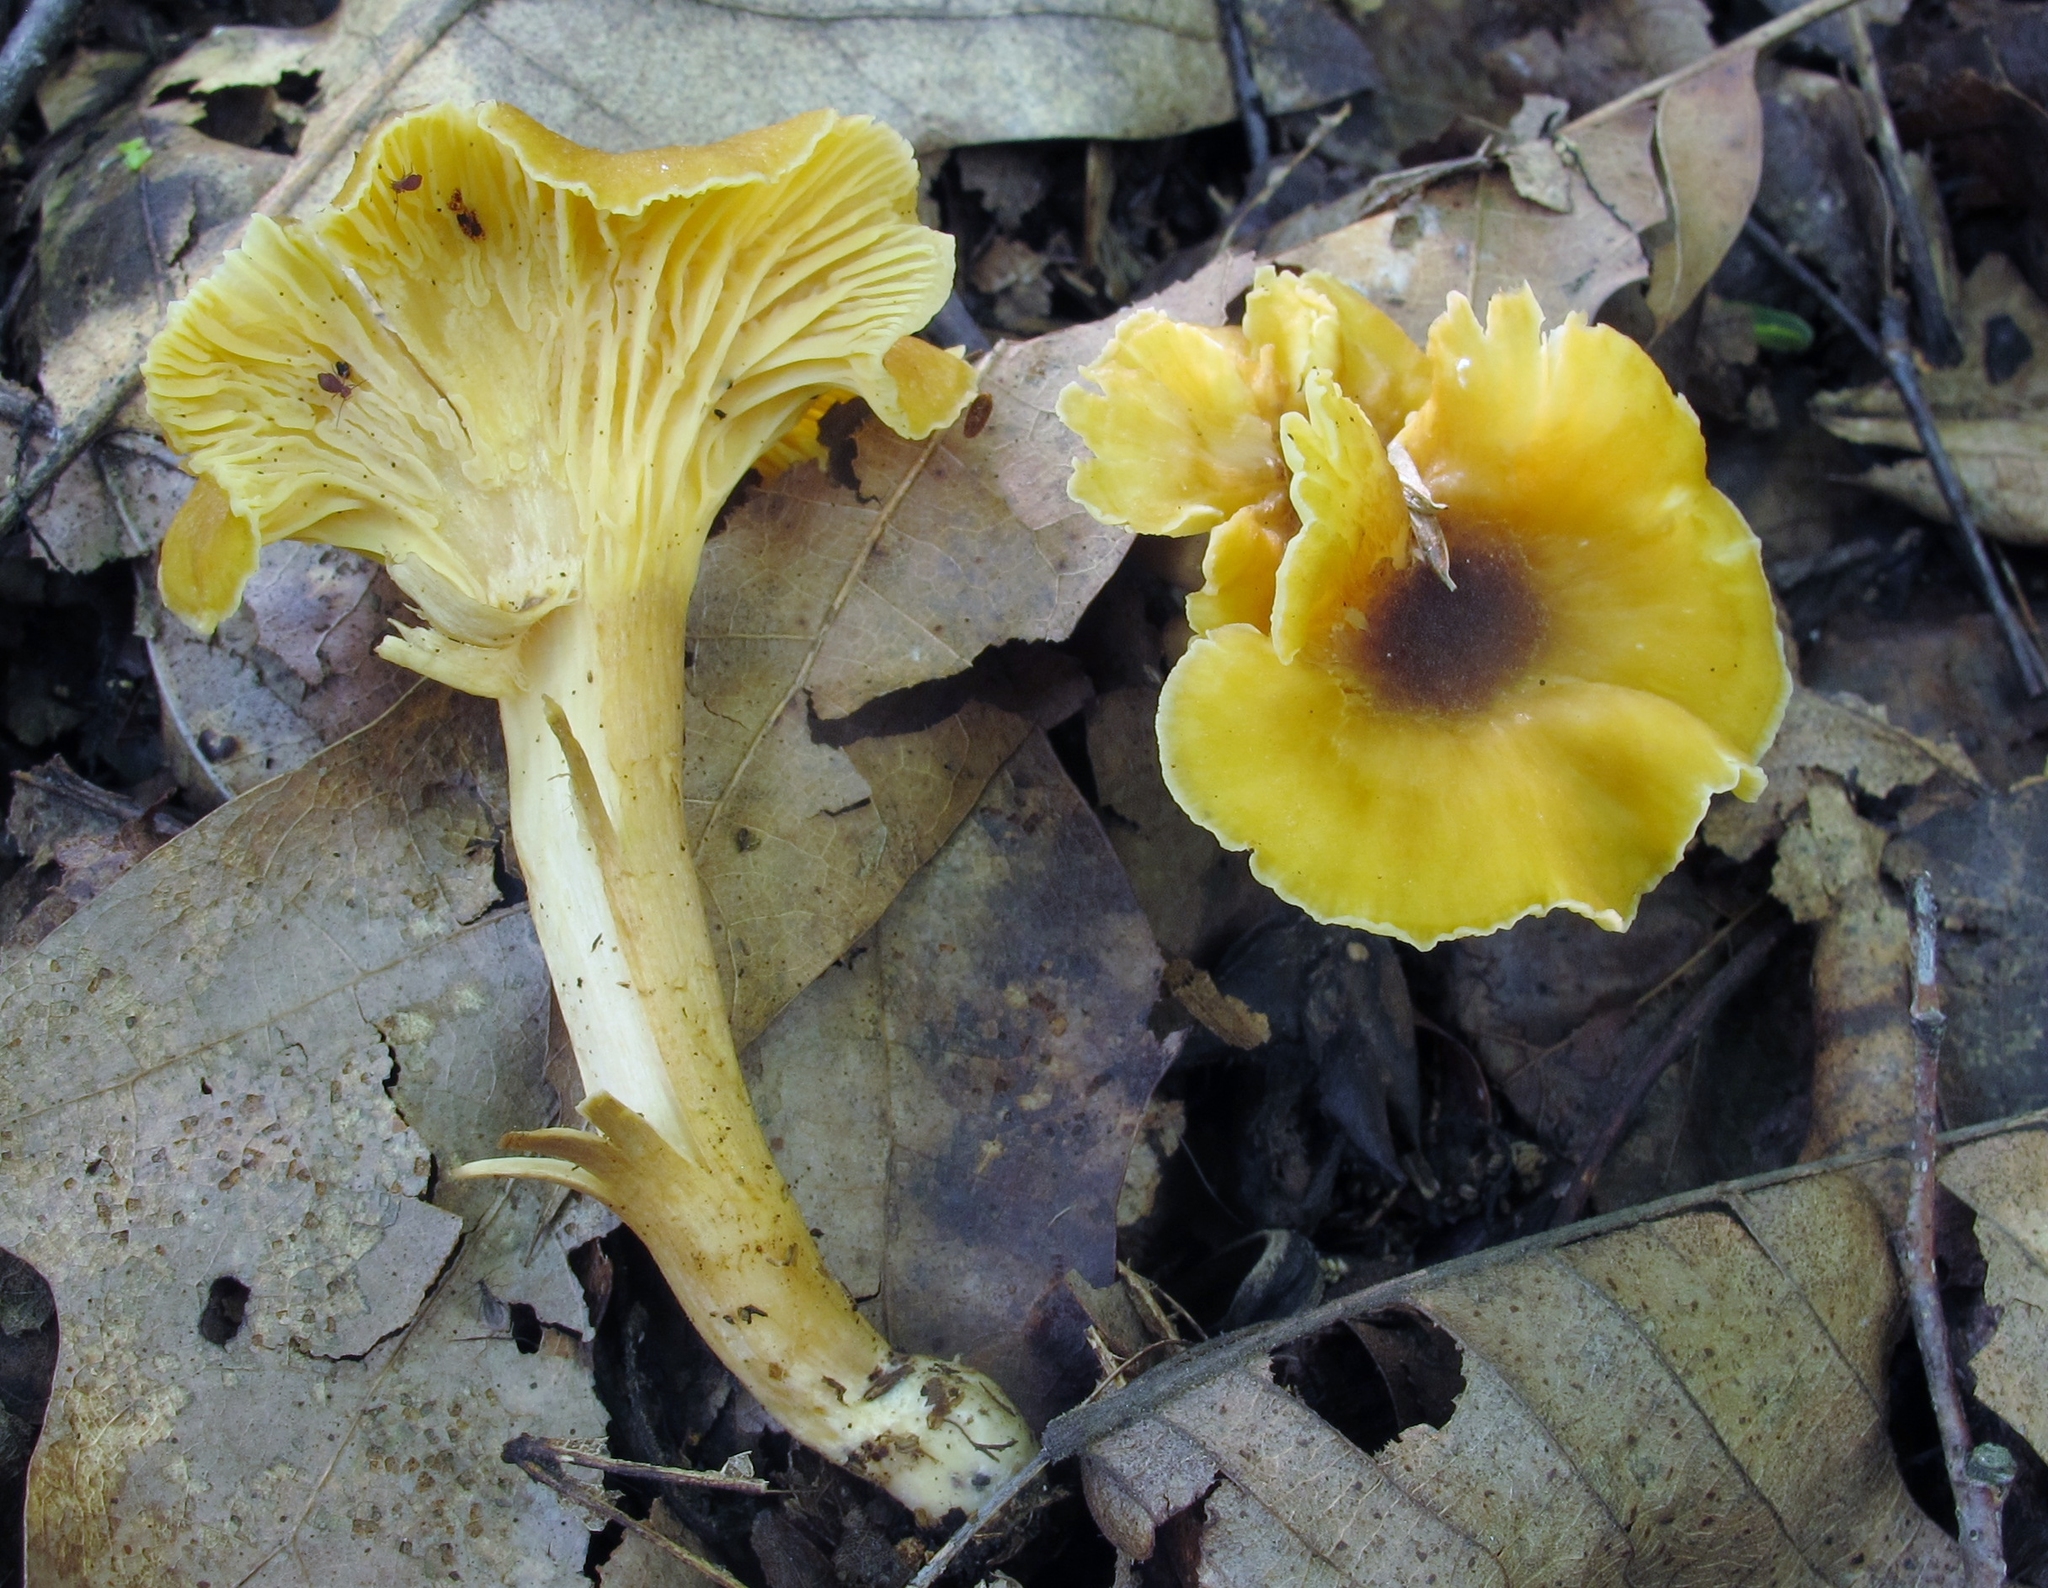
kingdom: Fungi
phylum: Basidiomycota
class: Agaricomycetes
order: Cantharellales
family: Hydnaceae
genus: Cantharellus
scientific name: Cantharellus appalachiensis
